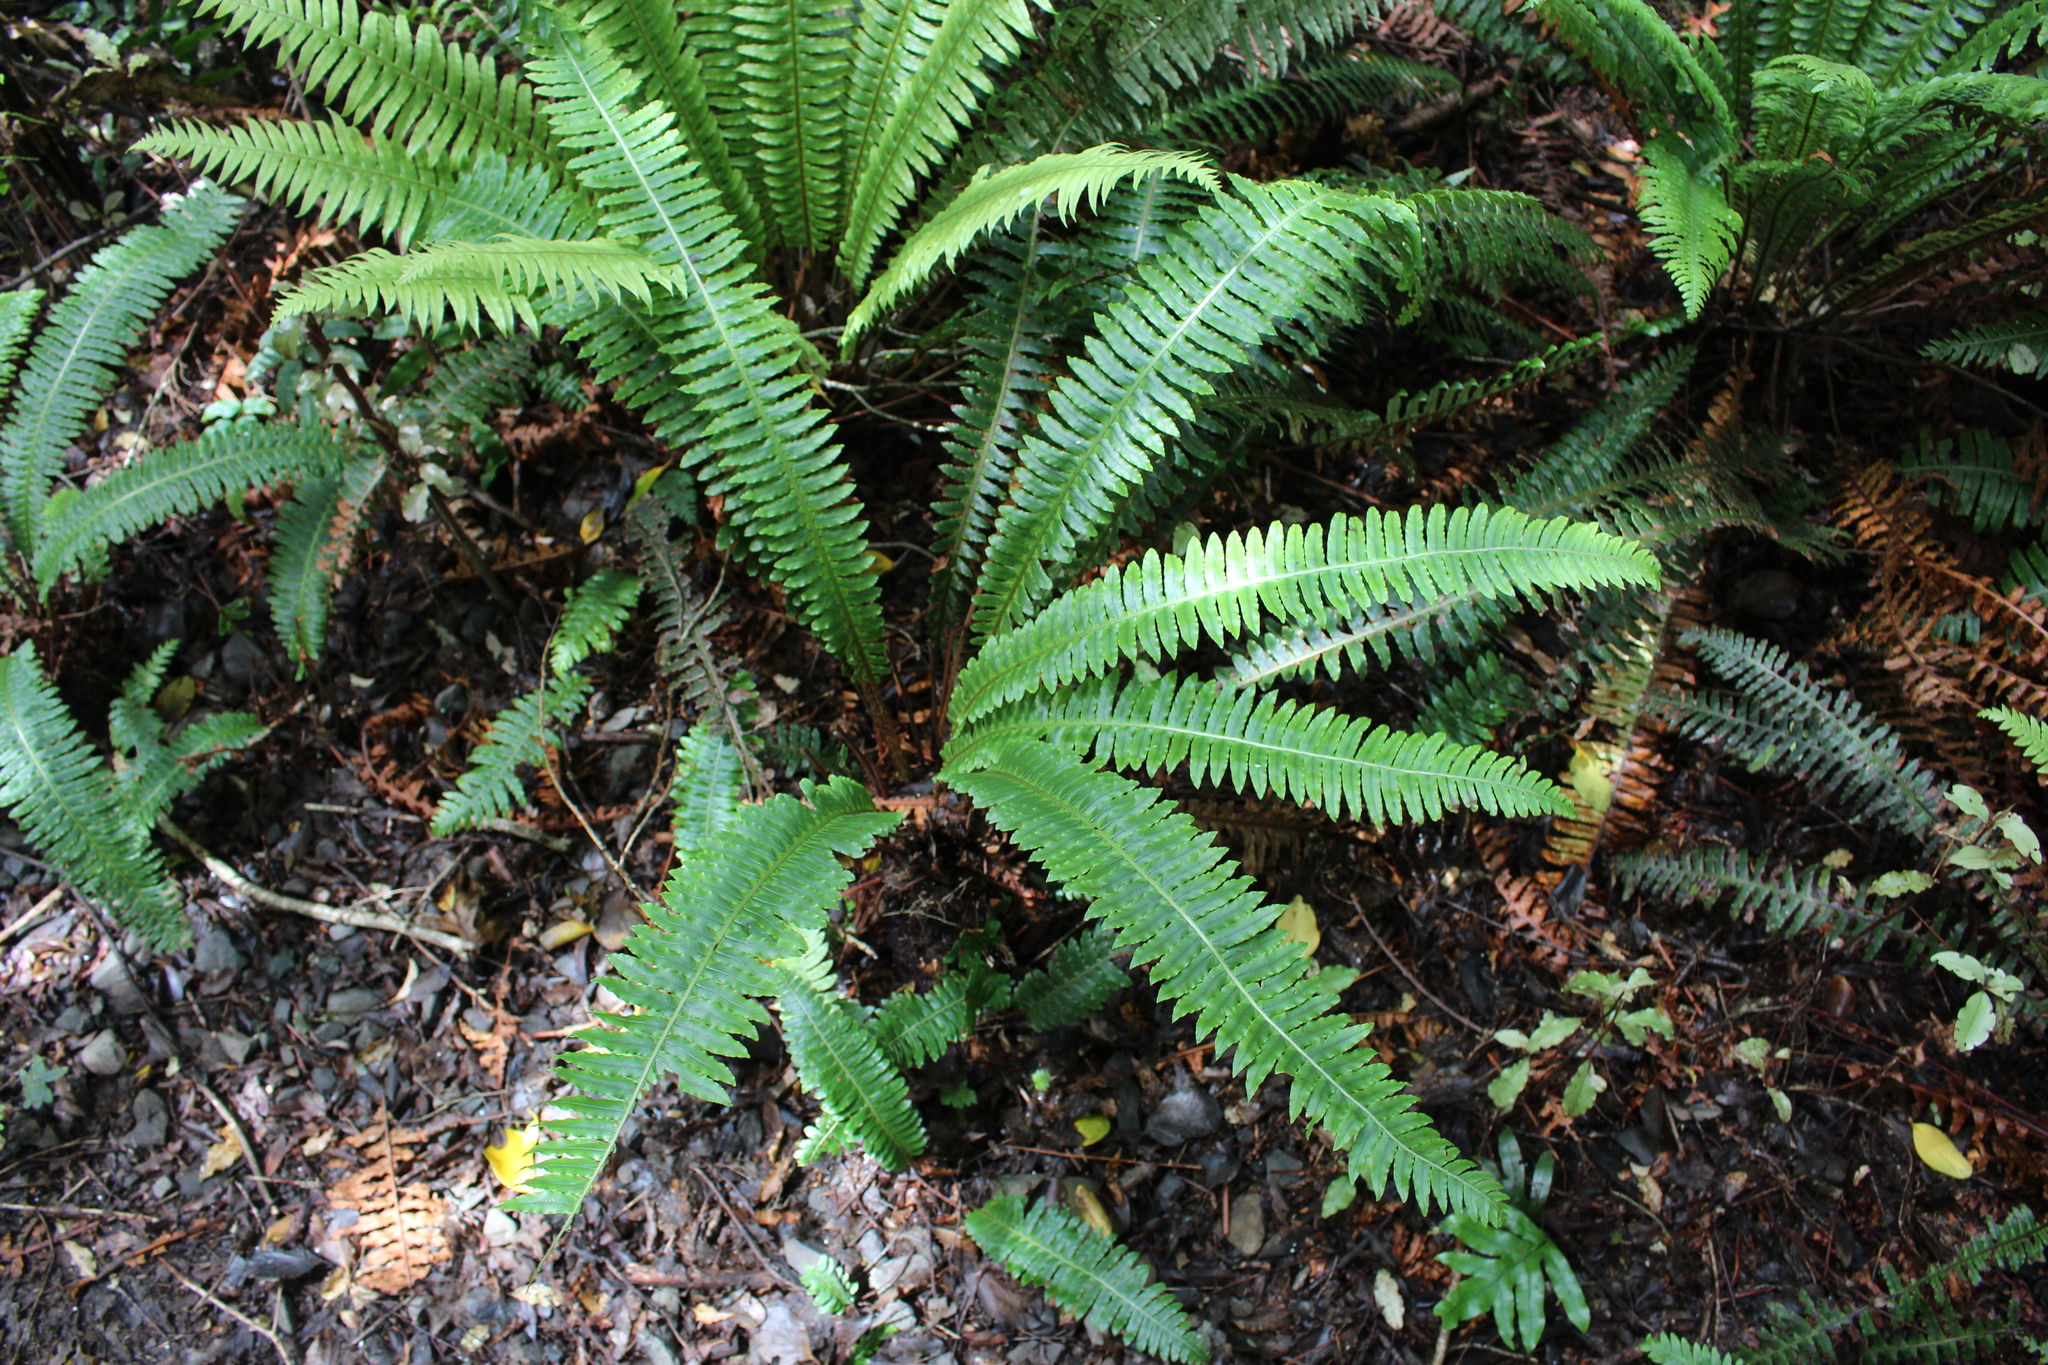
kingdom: Plantae
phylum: Tracheophyta
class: Polypodiopsida
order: Polypodiales
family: Blechnaceae
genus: Lomaria
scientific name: Lomaria discolor
